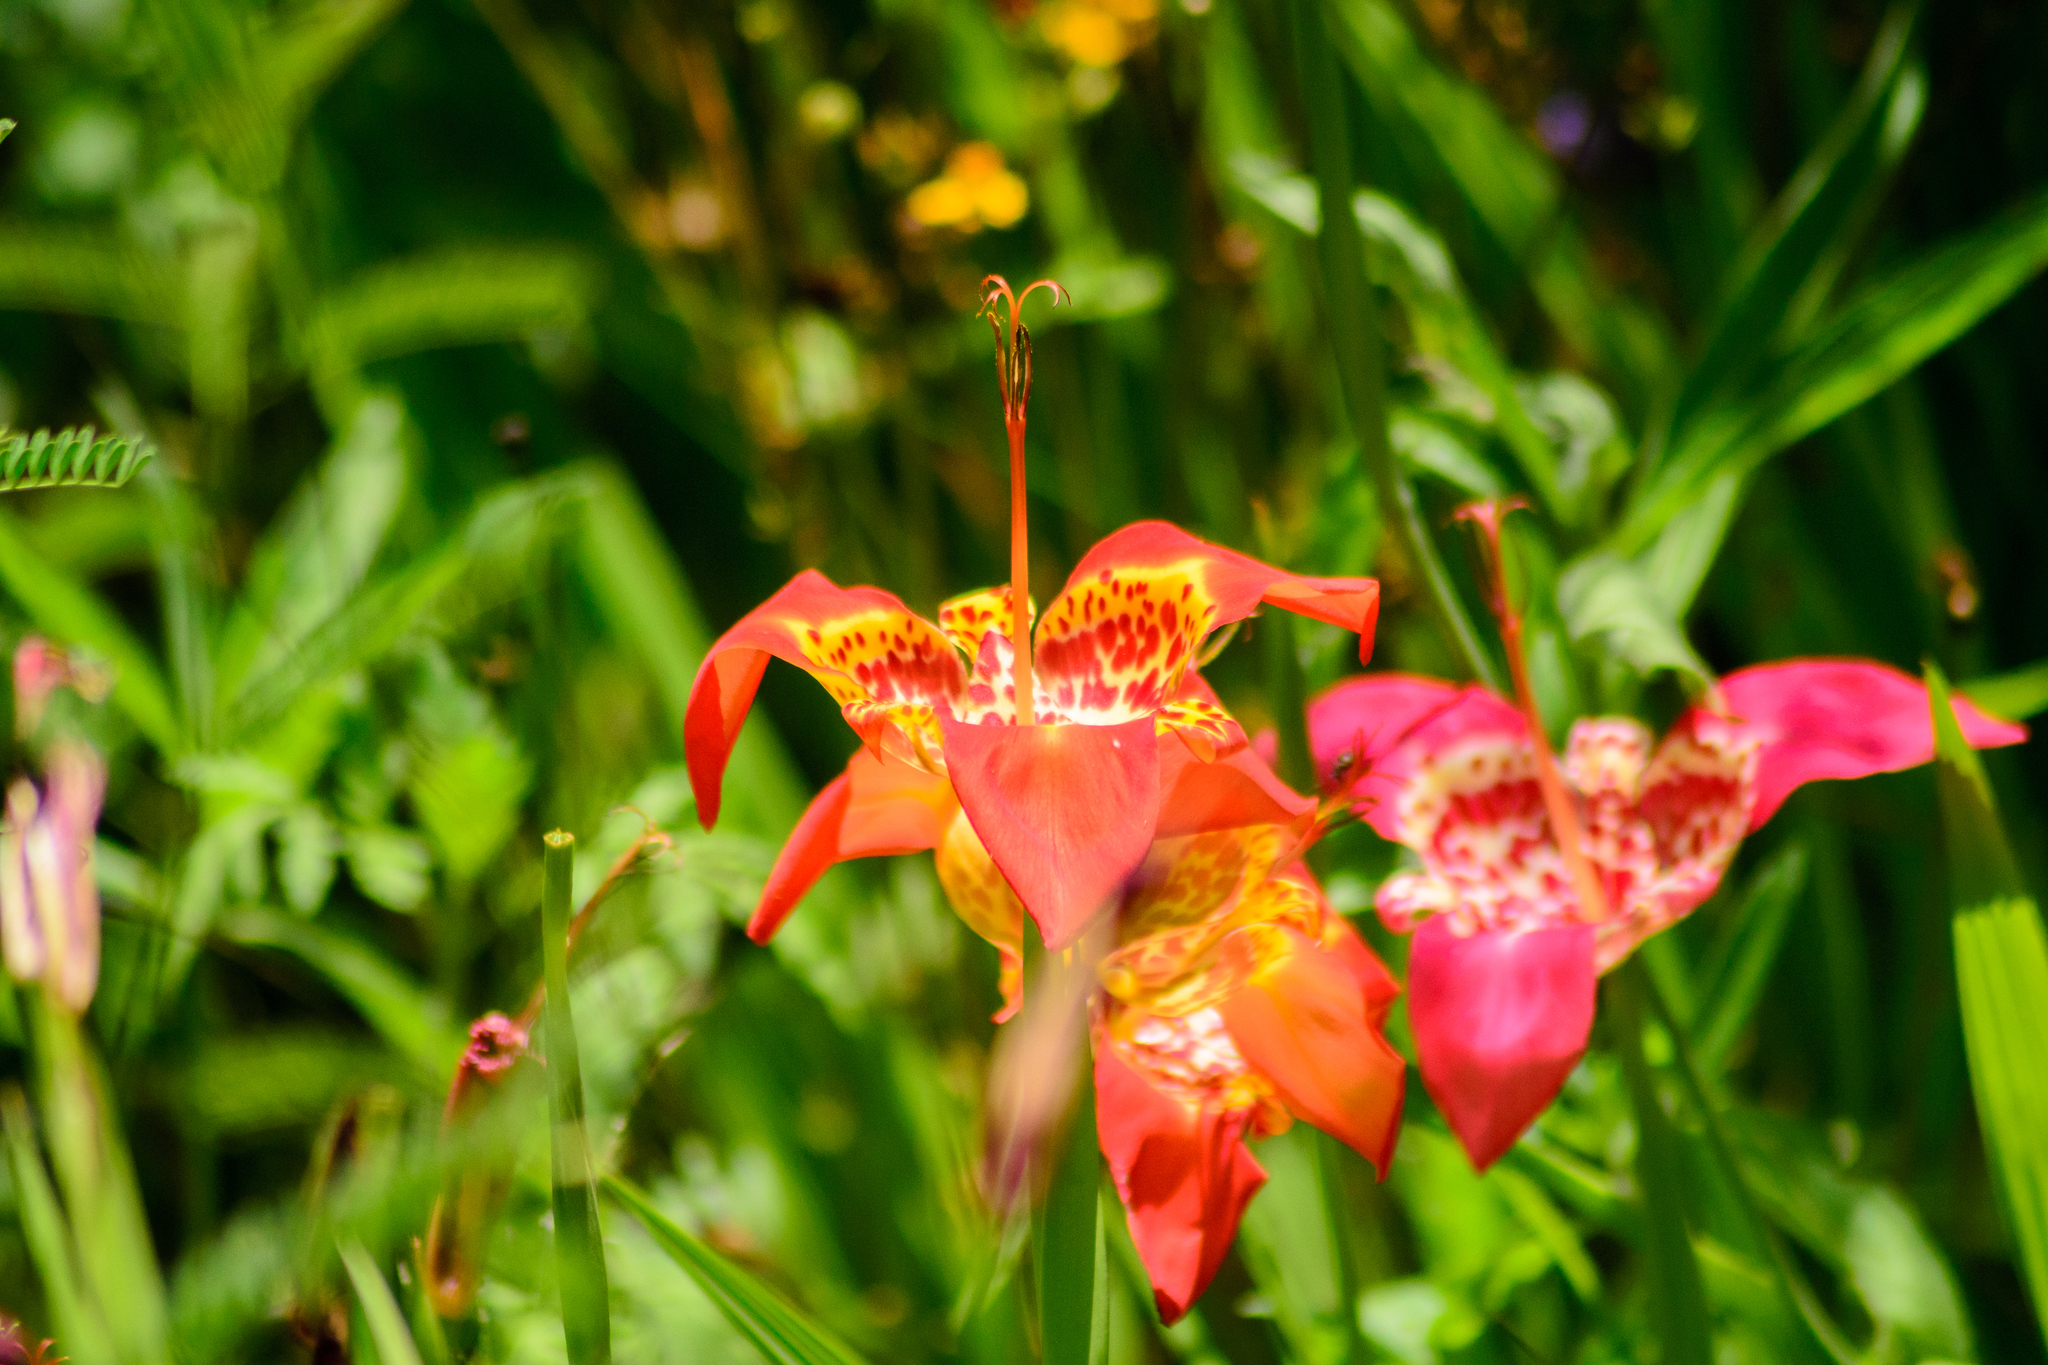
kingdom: Plantae
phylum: Tracheophyta
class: Liliopsida
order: Asparagales
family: Iridaceae
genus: Tigridia
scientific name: Tigridia pavonia
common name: Peacock-flower
